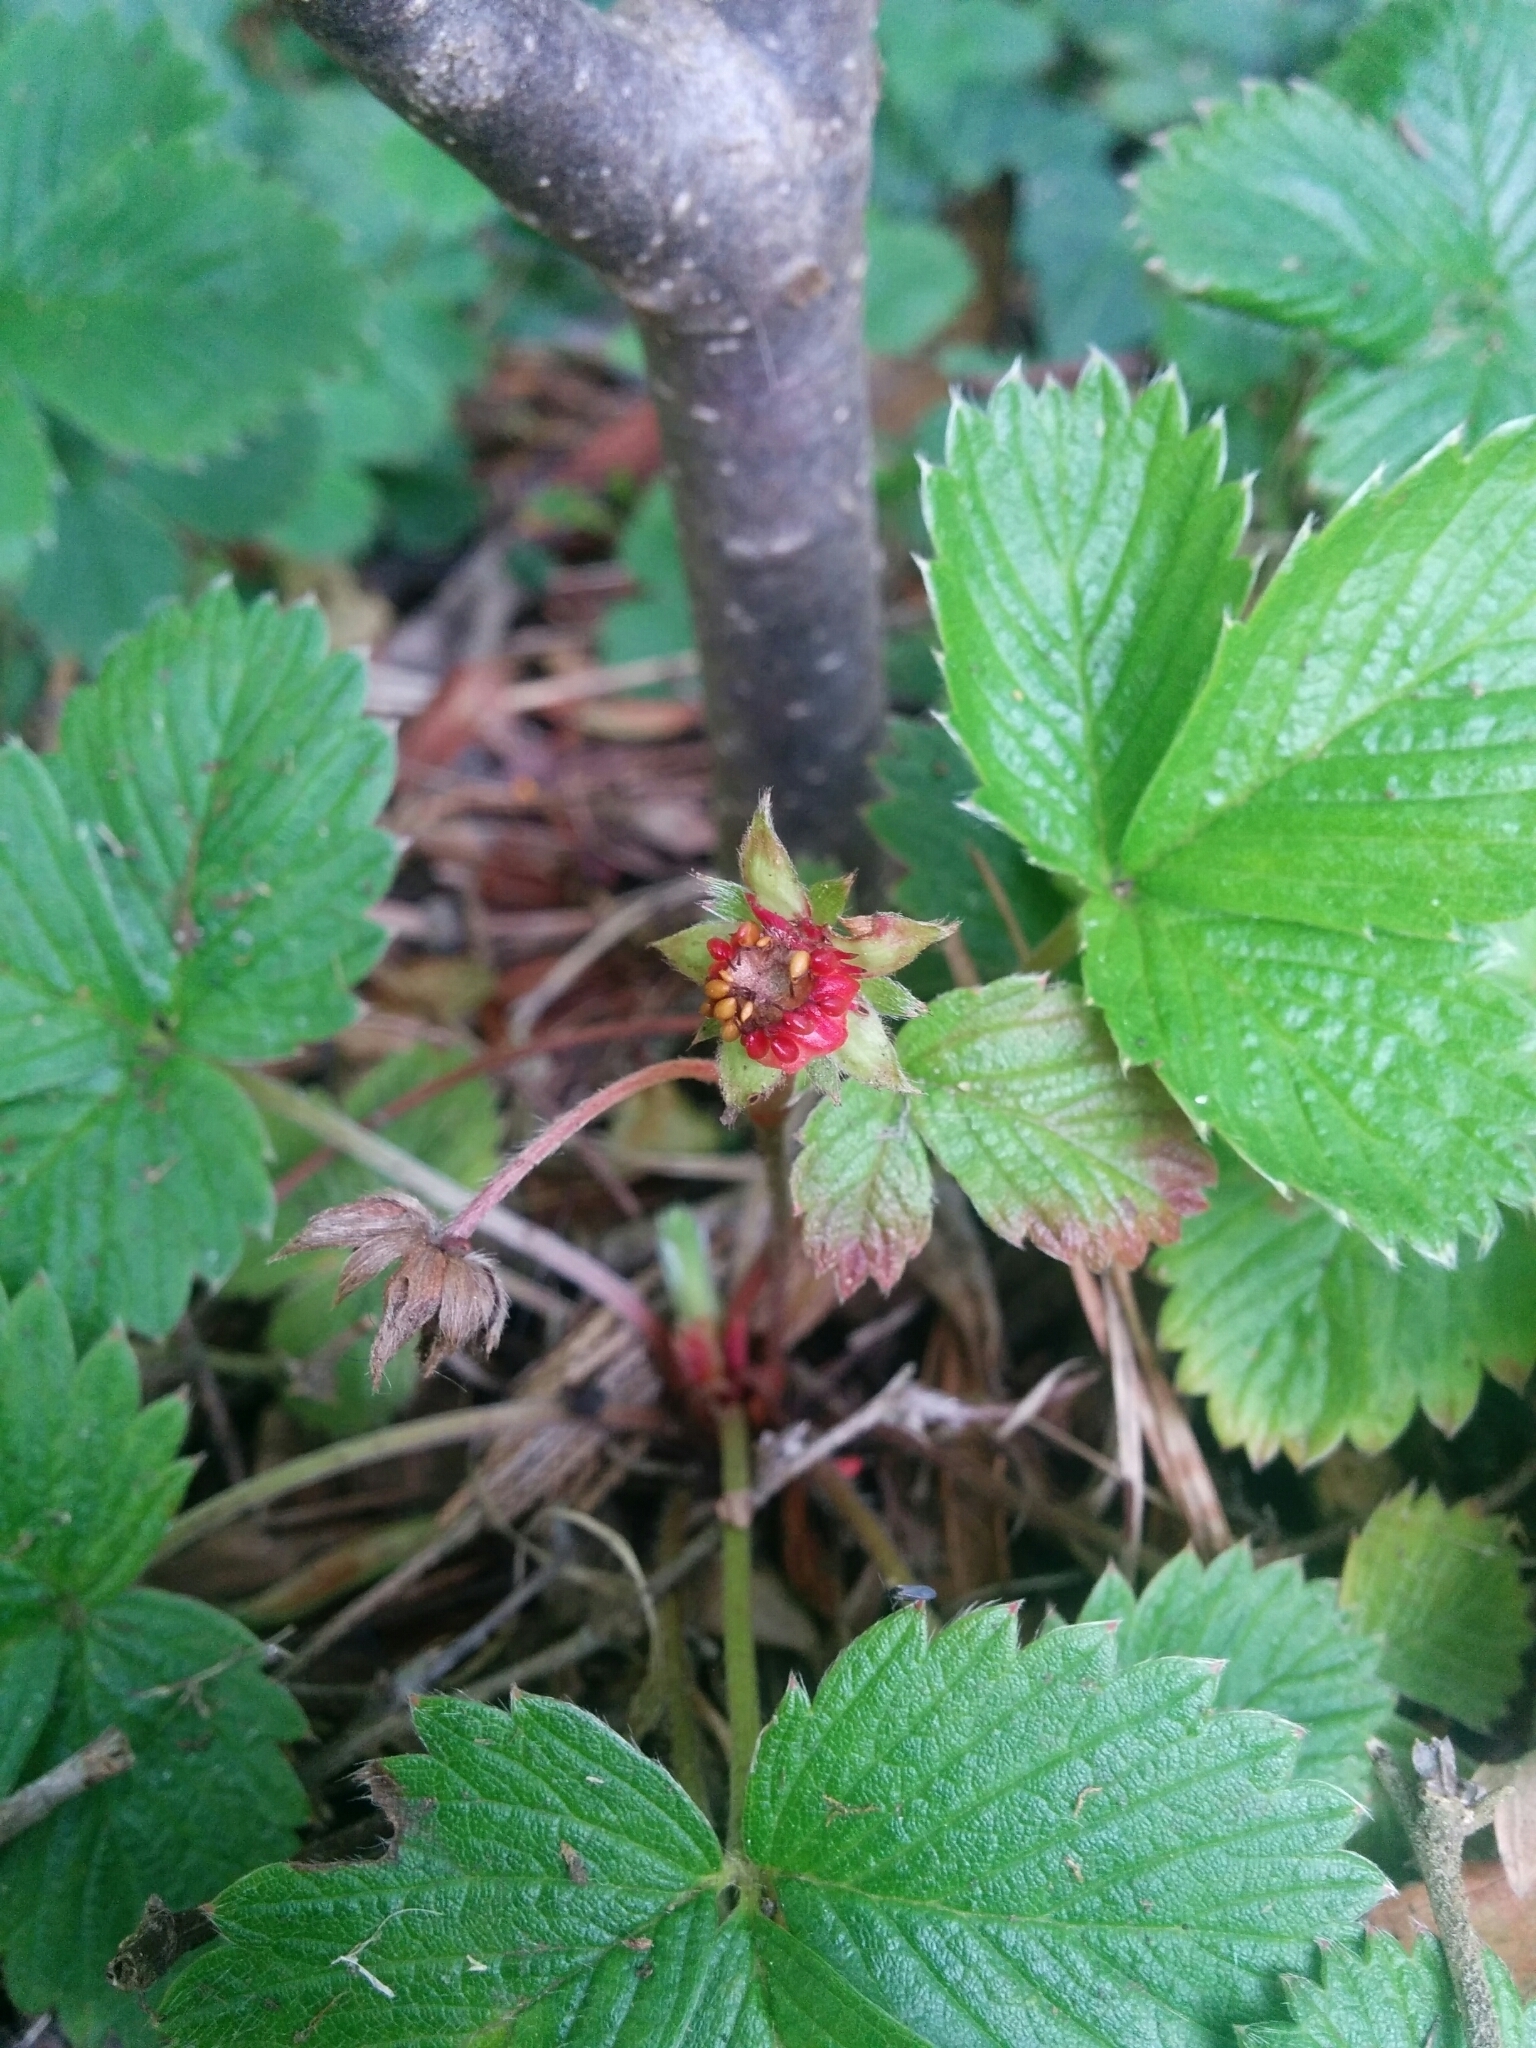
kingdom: Plantae
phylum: Tracheophyta
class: Magnoliopsida
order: Rosales
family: Rosaceae
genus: Fragaria
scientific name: Fragaria vesca
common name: Wild strawberry
